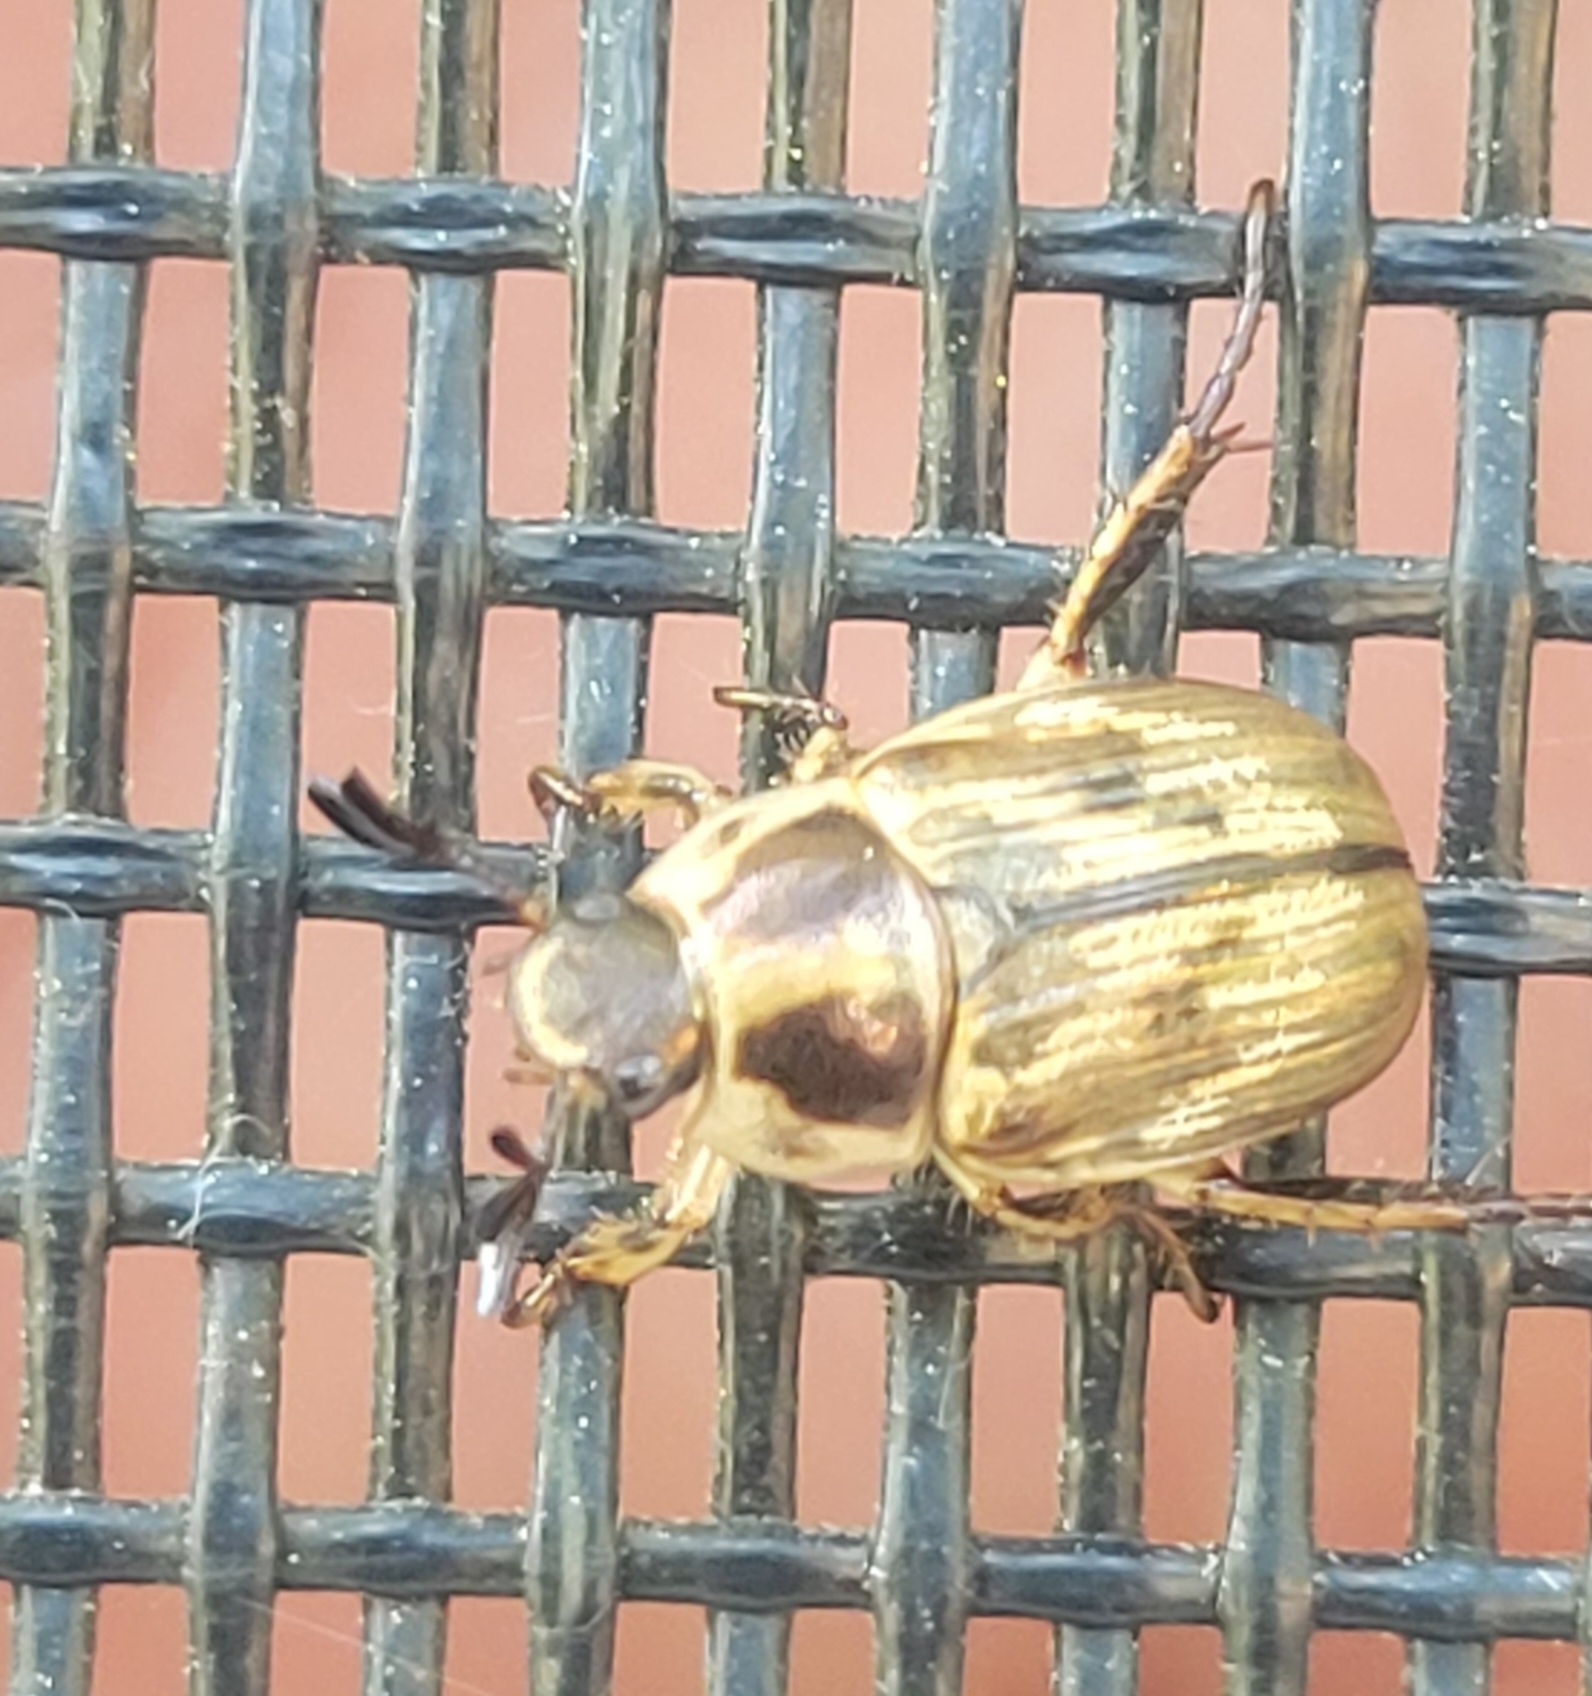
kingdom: Animalia
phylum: Arthropoda
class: Insecta
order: Coleoptera
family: Scarabaeidae
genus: Exomala
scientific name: Exomala orientalis
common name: Oriental beetle
